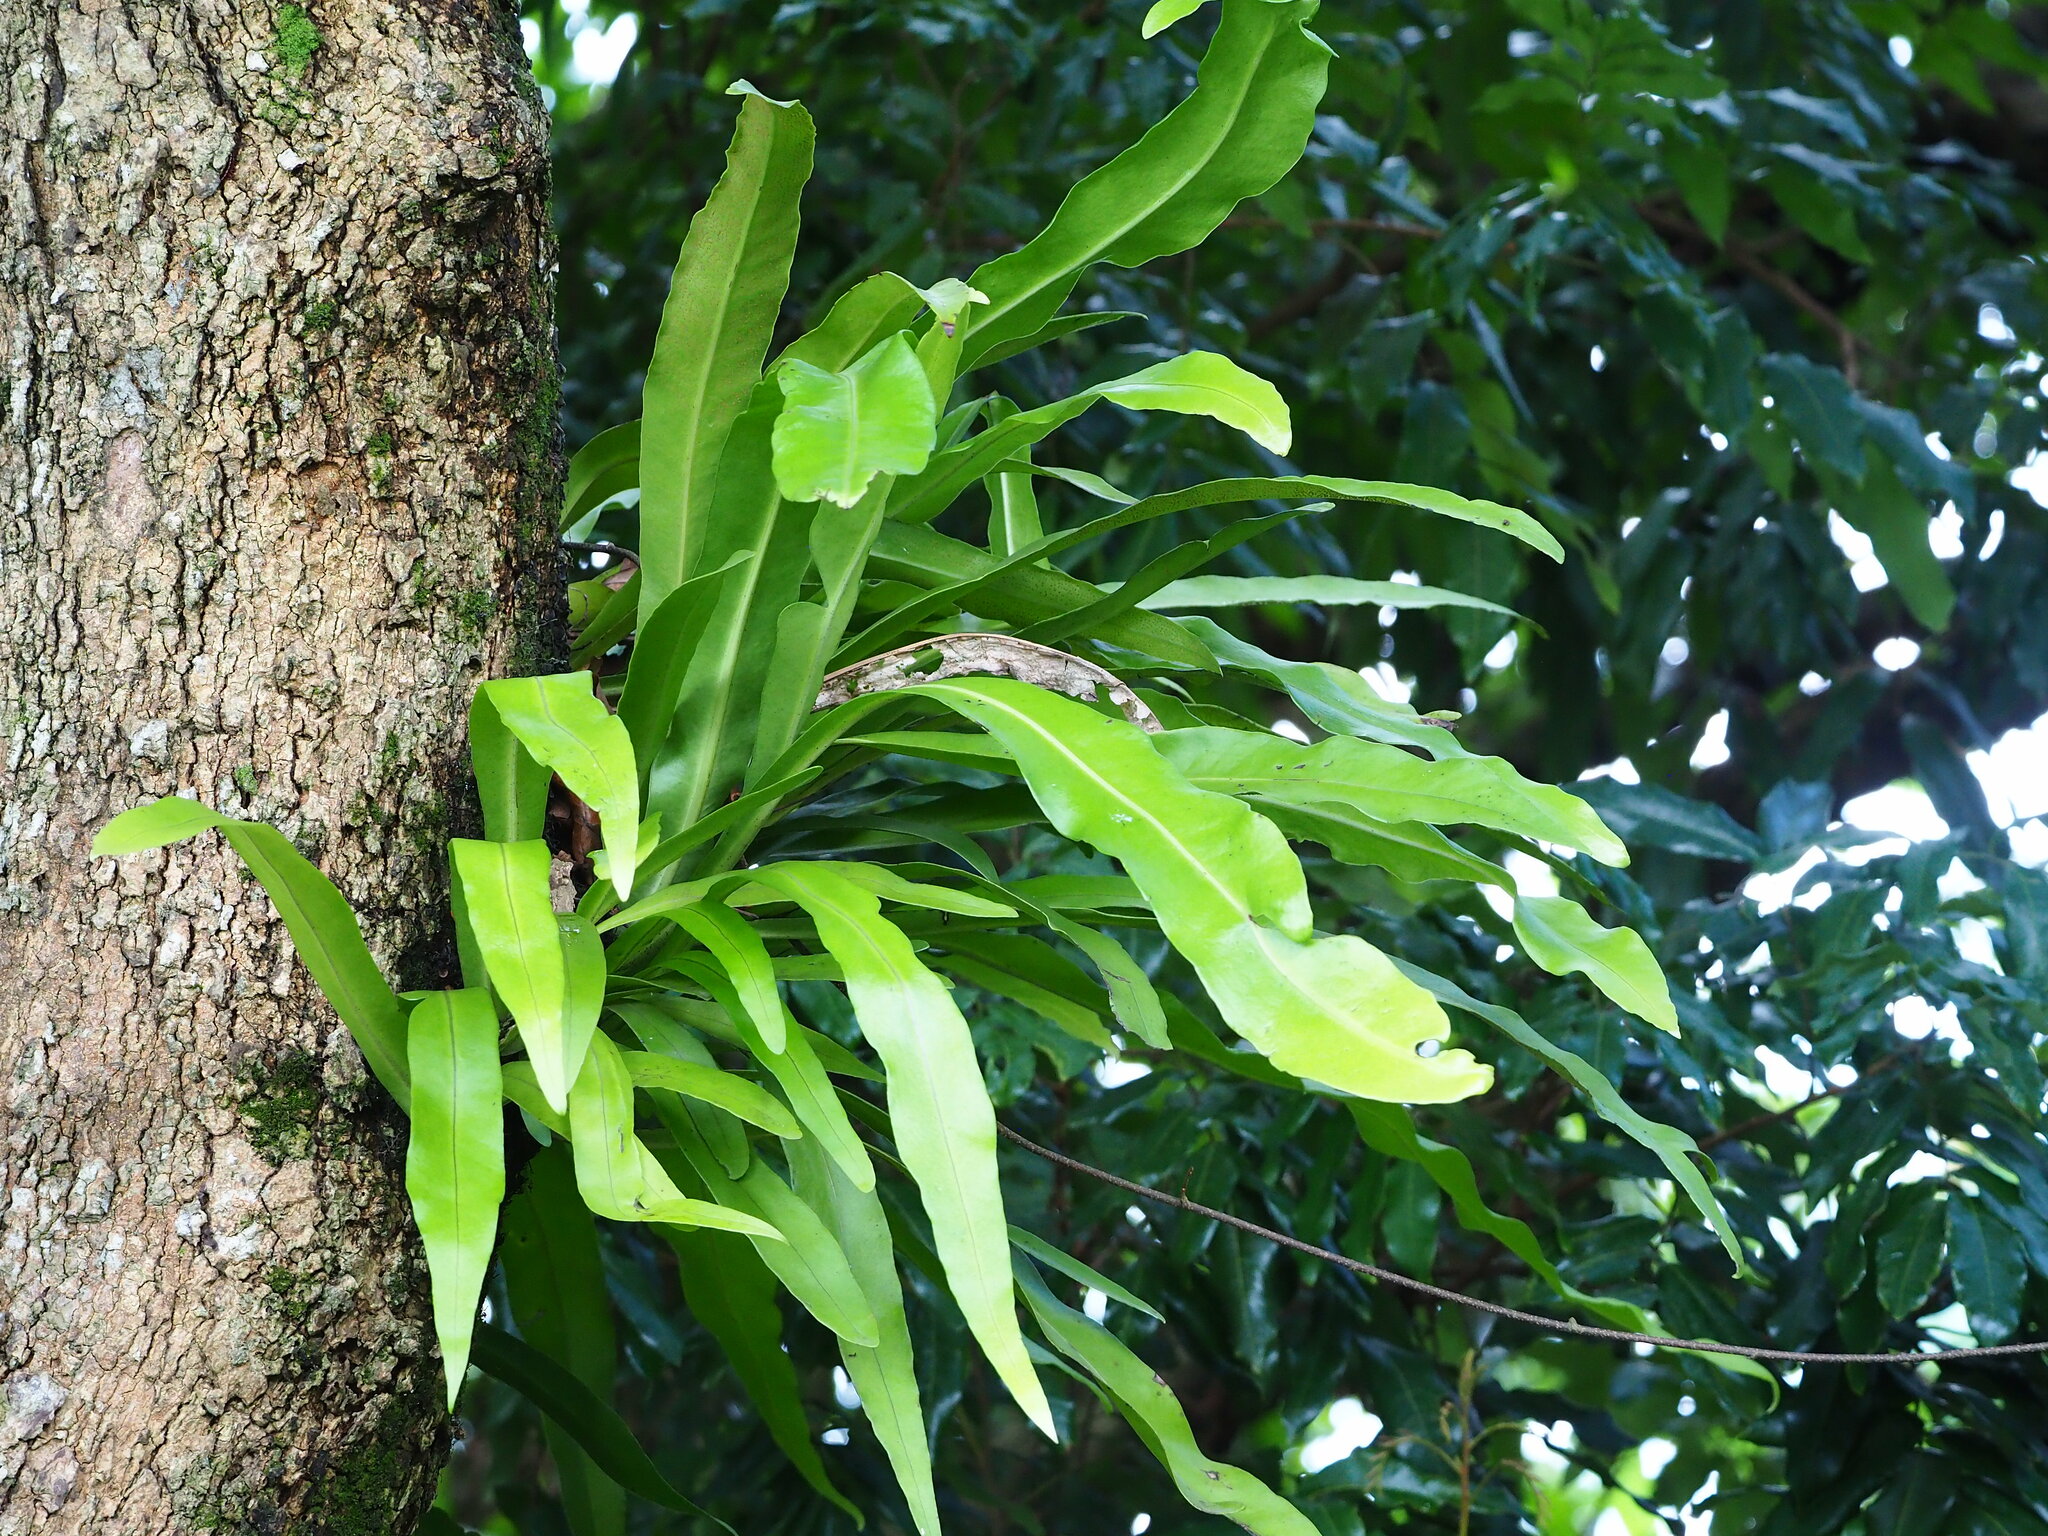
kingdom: Plantae
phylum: Tracheophyta
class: Polypodiopsida
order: Polypodiales
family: Polypodiaceae
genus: Microsorum
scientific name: Microsorum punctatum
